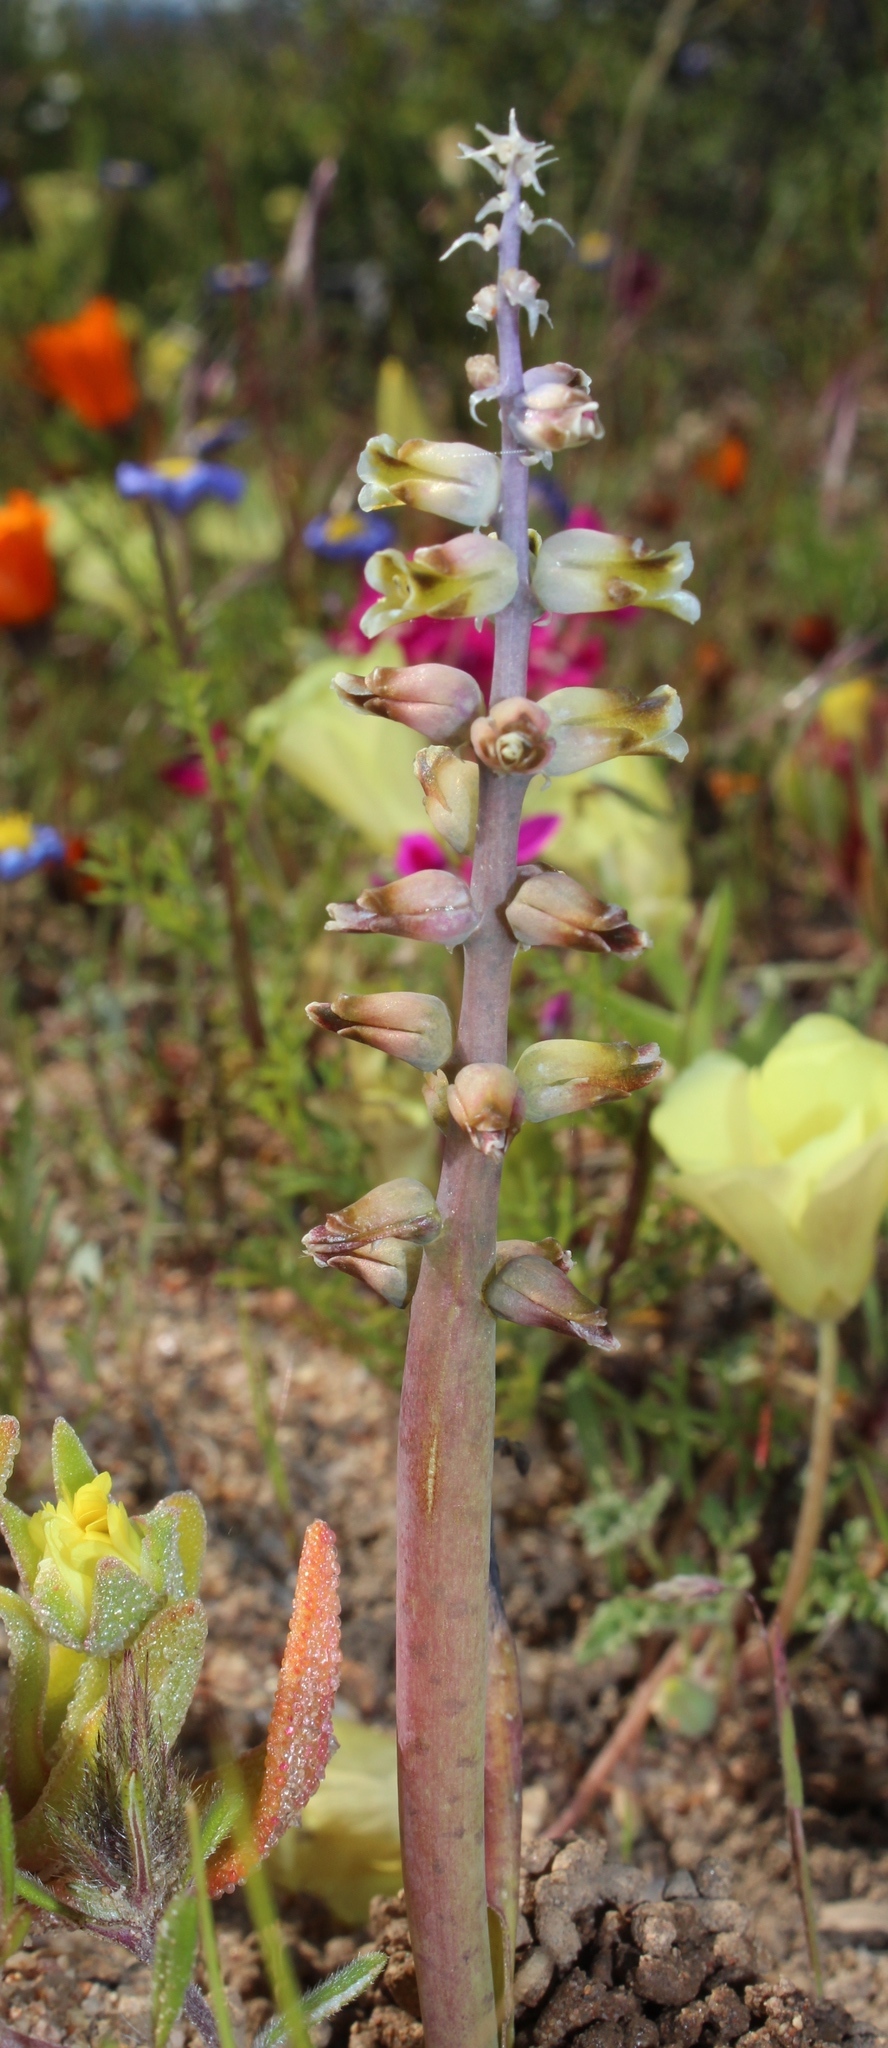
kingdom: Plantae
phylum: Tracheophyta
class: Liliopsida
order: Asparagales
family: Asparagaceae
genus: Lachenalia
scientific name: Lachenalia mutabilis
